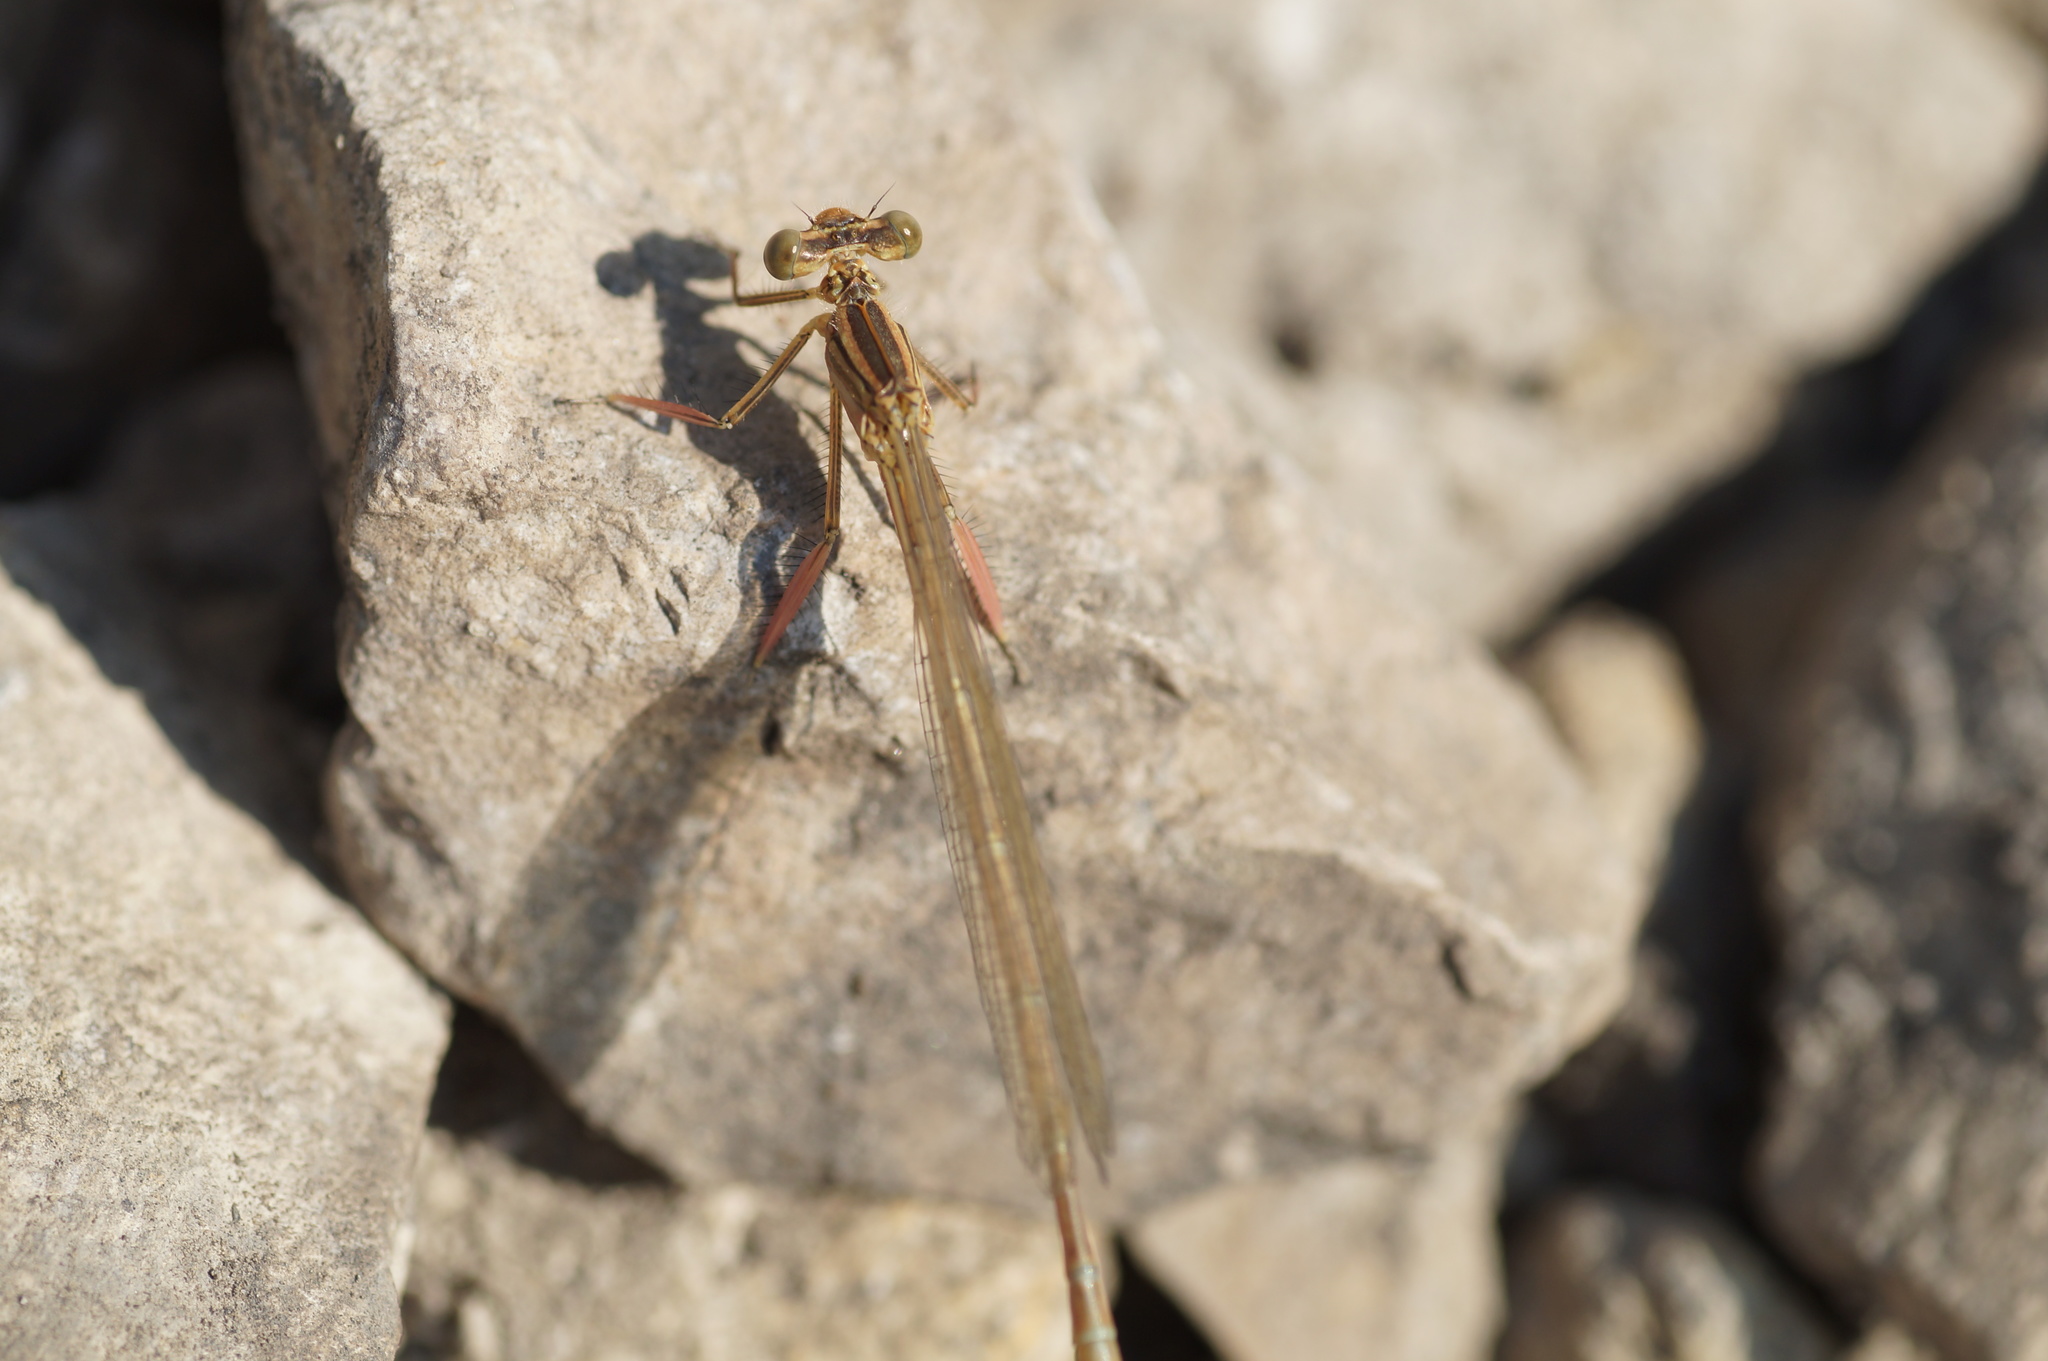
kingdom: Animalia
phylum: Arthropoda
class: Insecta
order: Odonata
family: Platycnemididae
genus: Platycnemis
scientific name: Platycnemis pennipes
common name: White-legged damselfly
